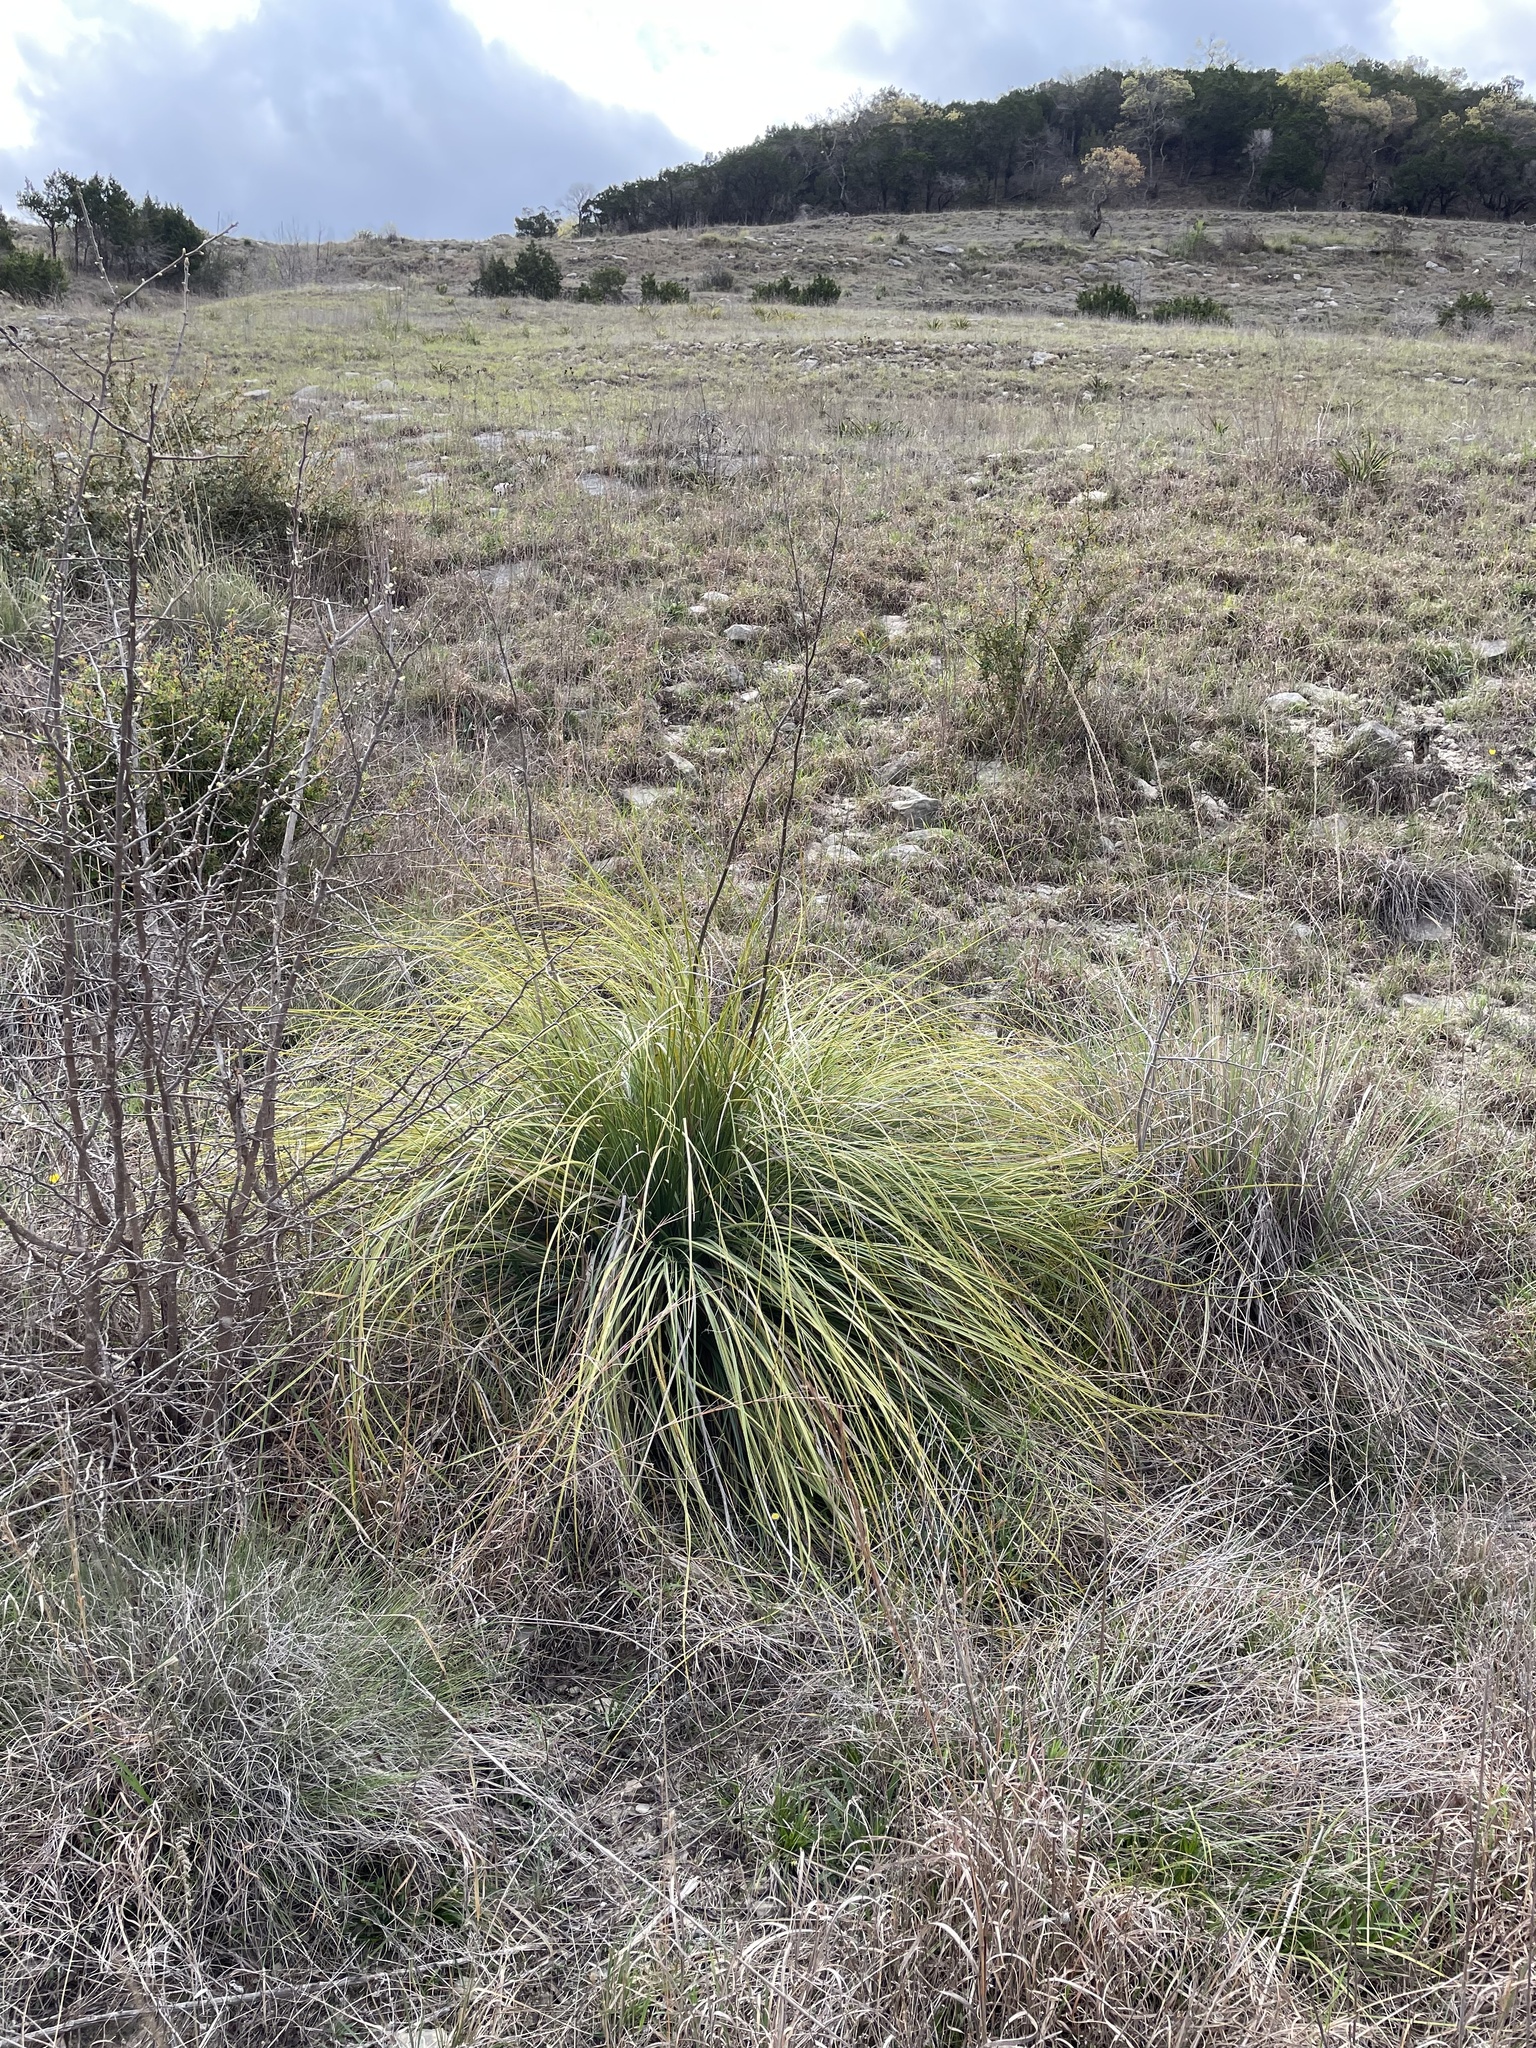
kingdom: Plantae
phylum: Tracheophyta
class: Liliopsida
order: Asparagales
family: Asparagaceae
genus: Nolina
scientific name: Nolina lindheimeriana
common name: Lindheimer's bear-grass
